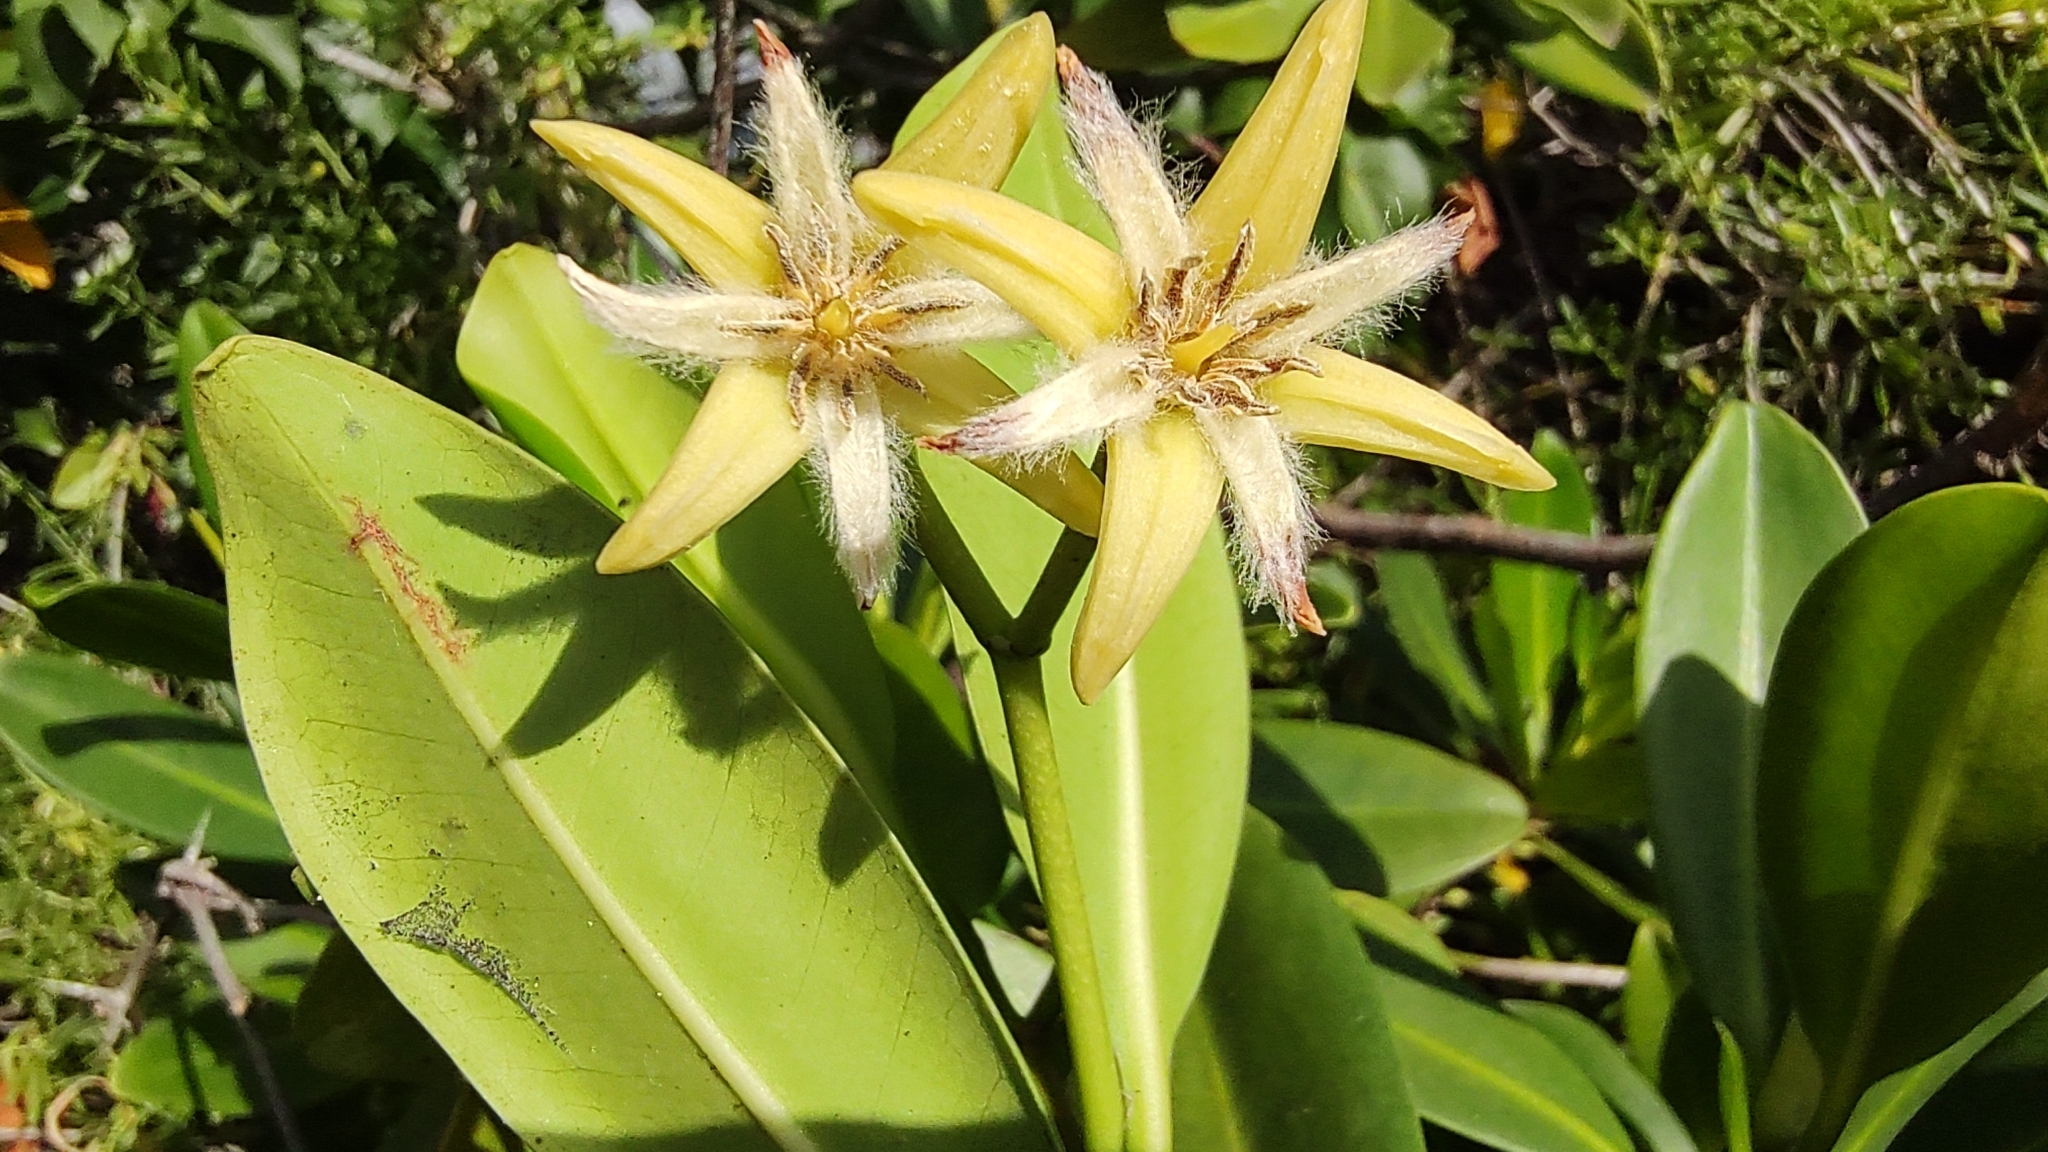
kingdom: Plantae
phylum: Tracheophyta
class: Magnoliopsida
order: Malpighiales
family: Rhizophoraceae
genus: Rhizophora
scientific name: Rhizophora mangle
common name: Red mangrove
